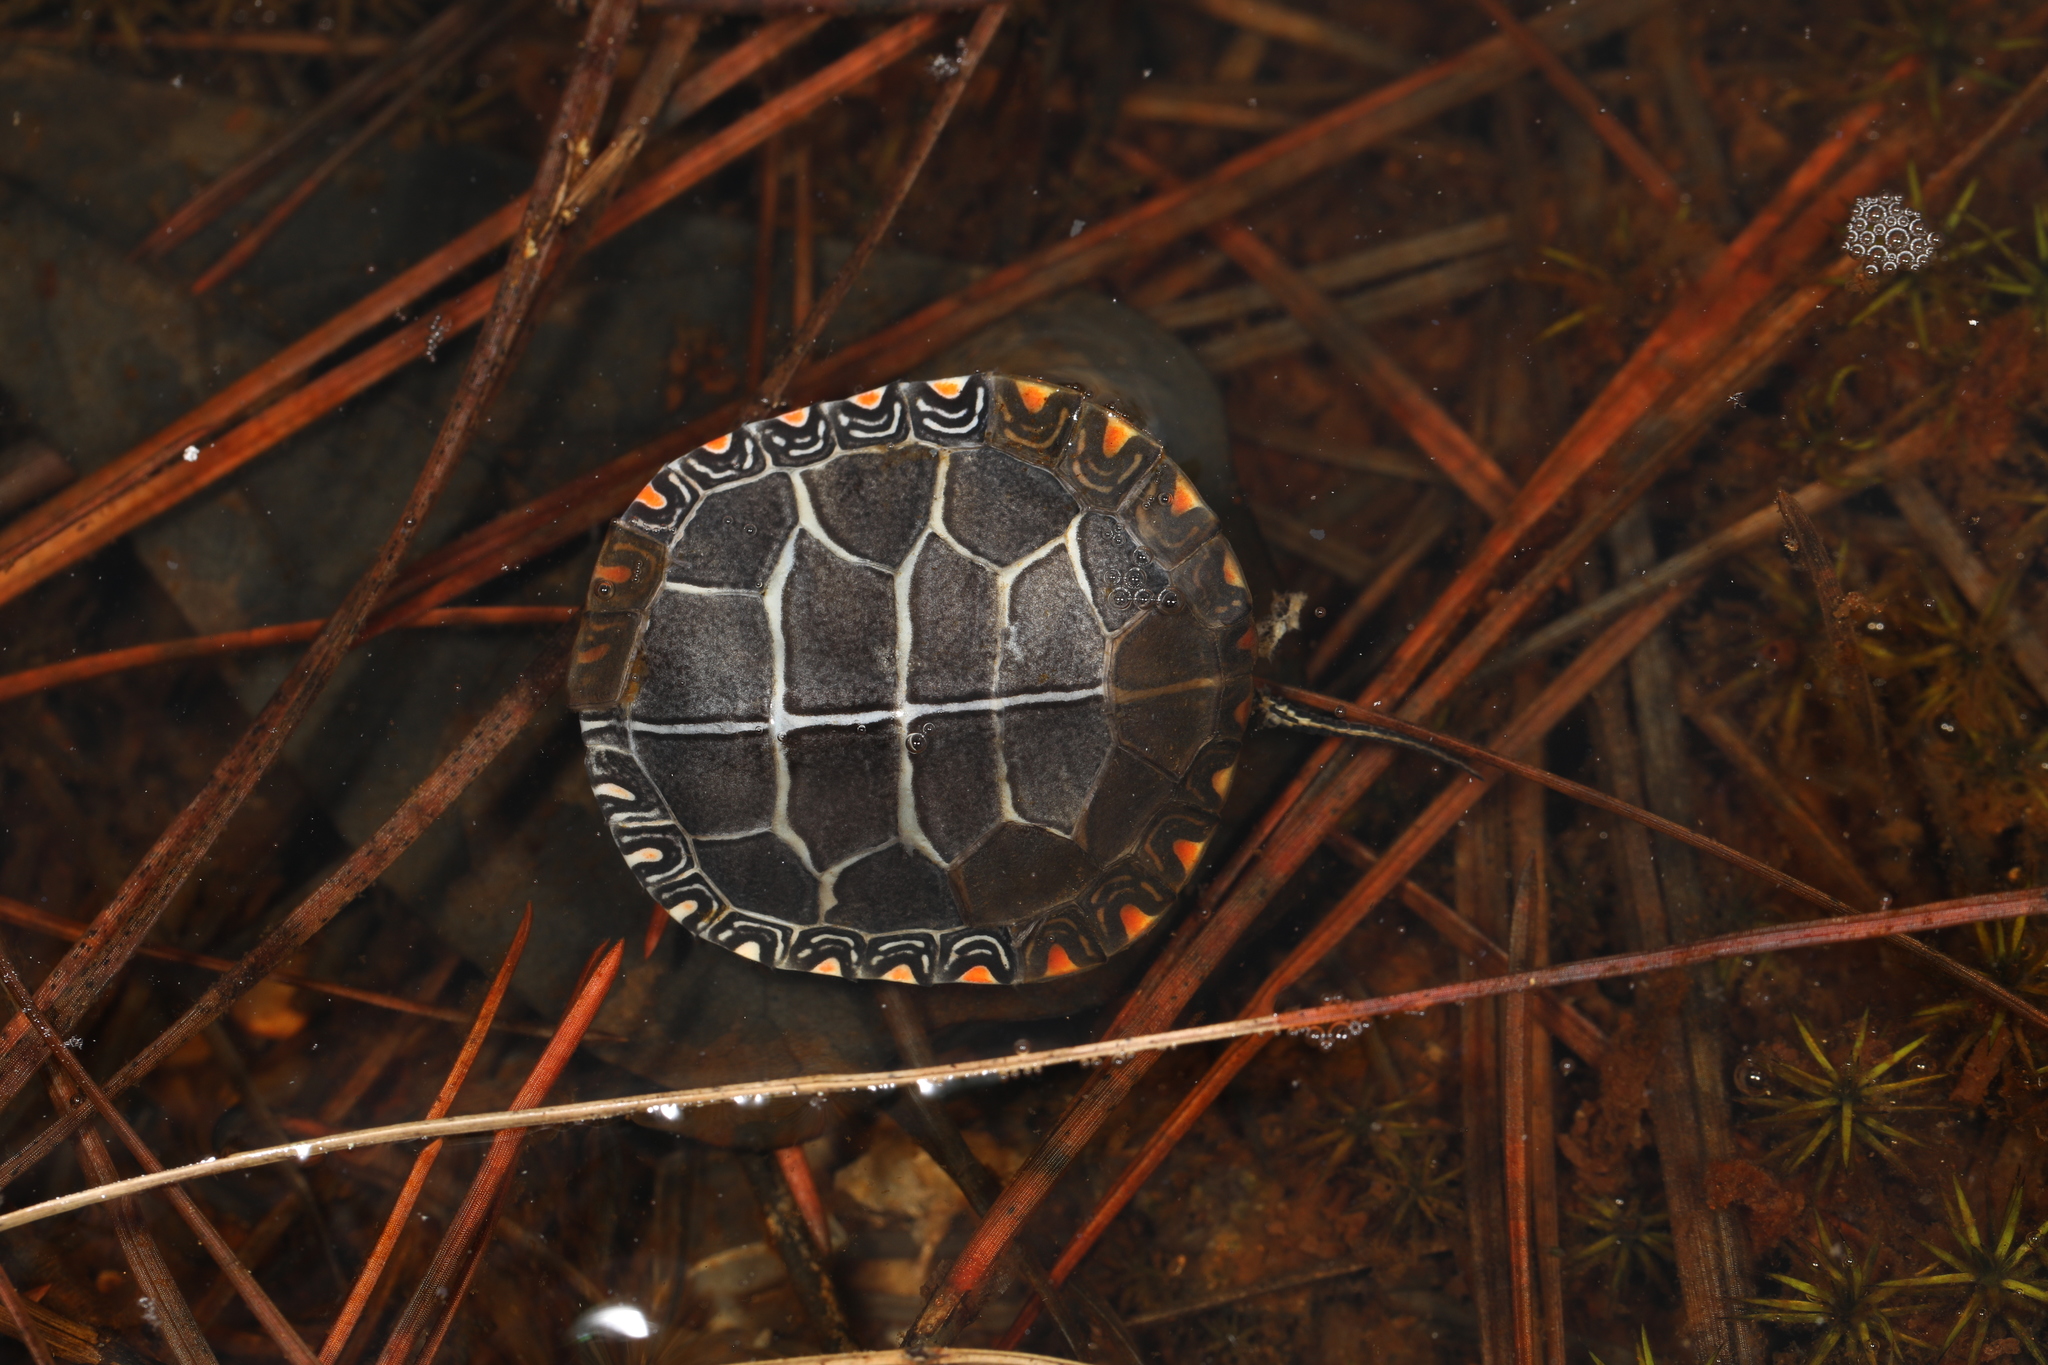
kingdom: Animalia
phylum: Chordata
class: Testudines
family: Emydidae
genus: Chrysemys
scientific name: Chrysemys picta
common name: Painted turtle
